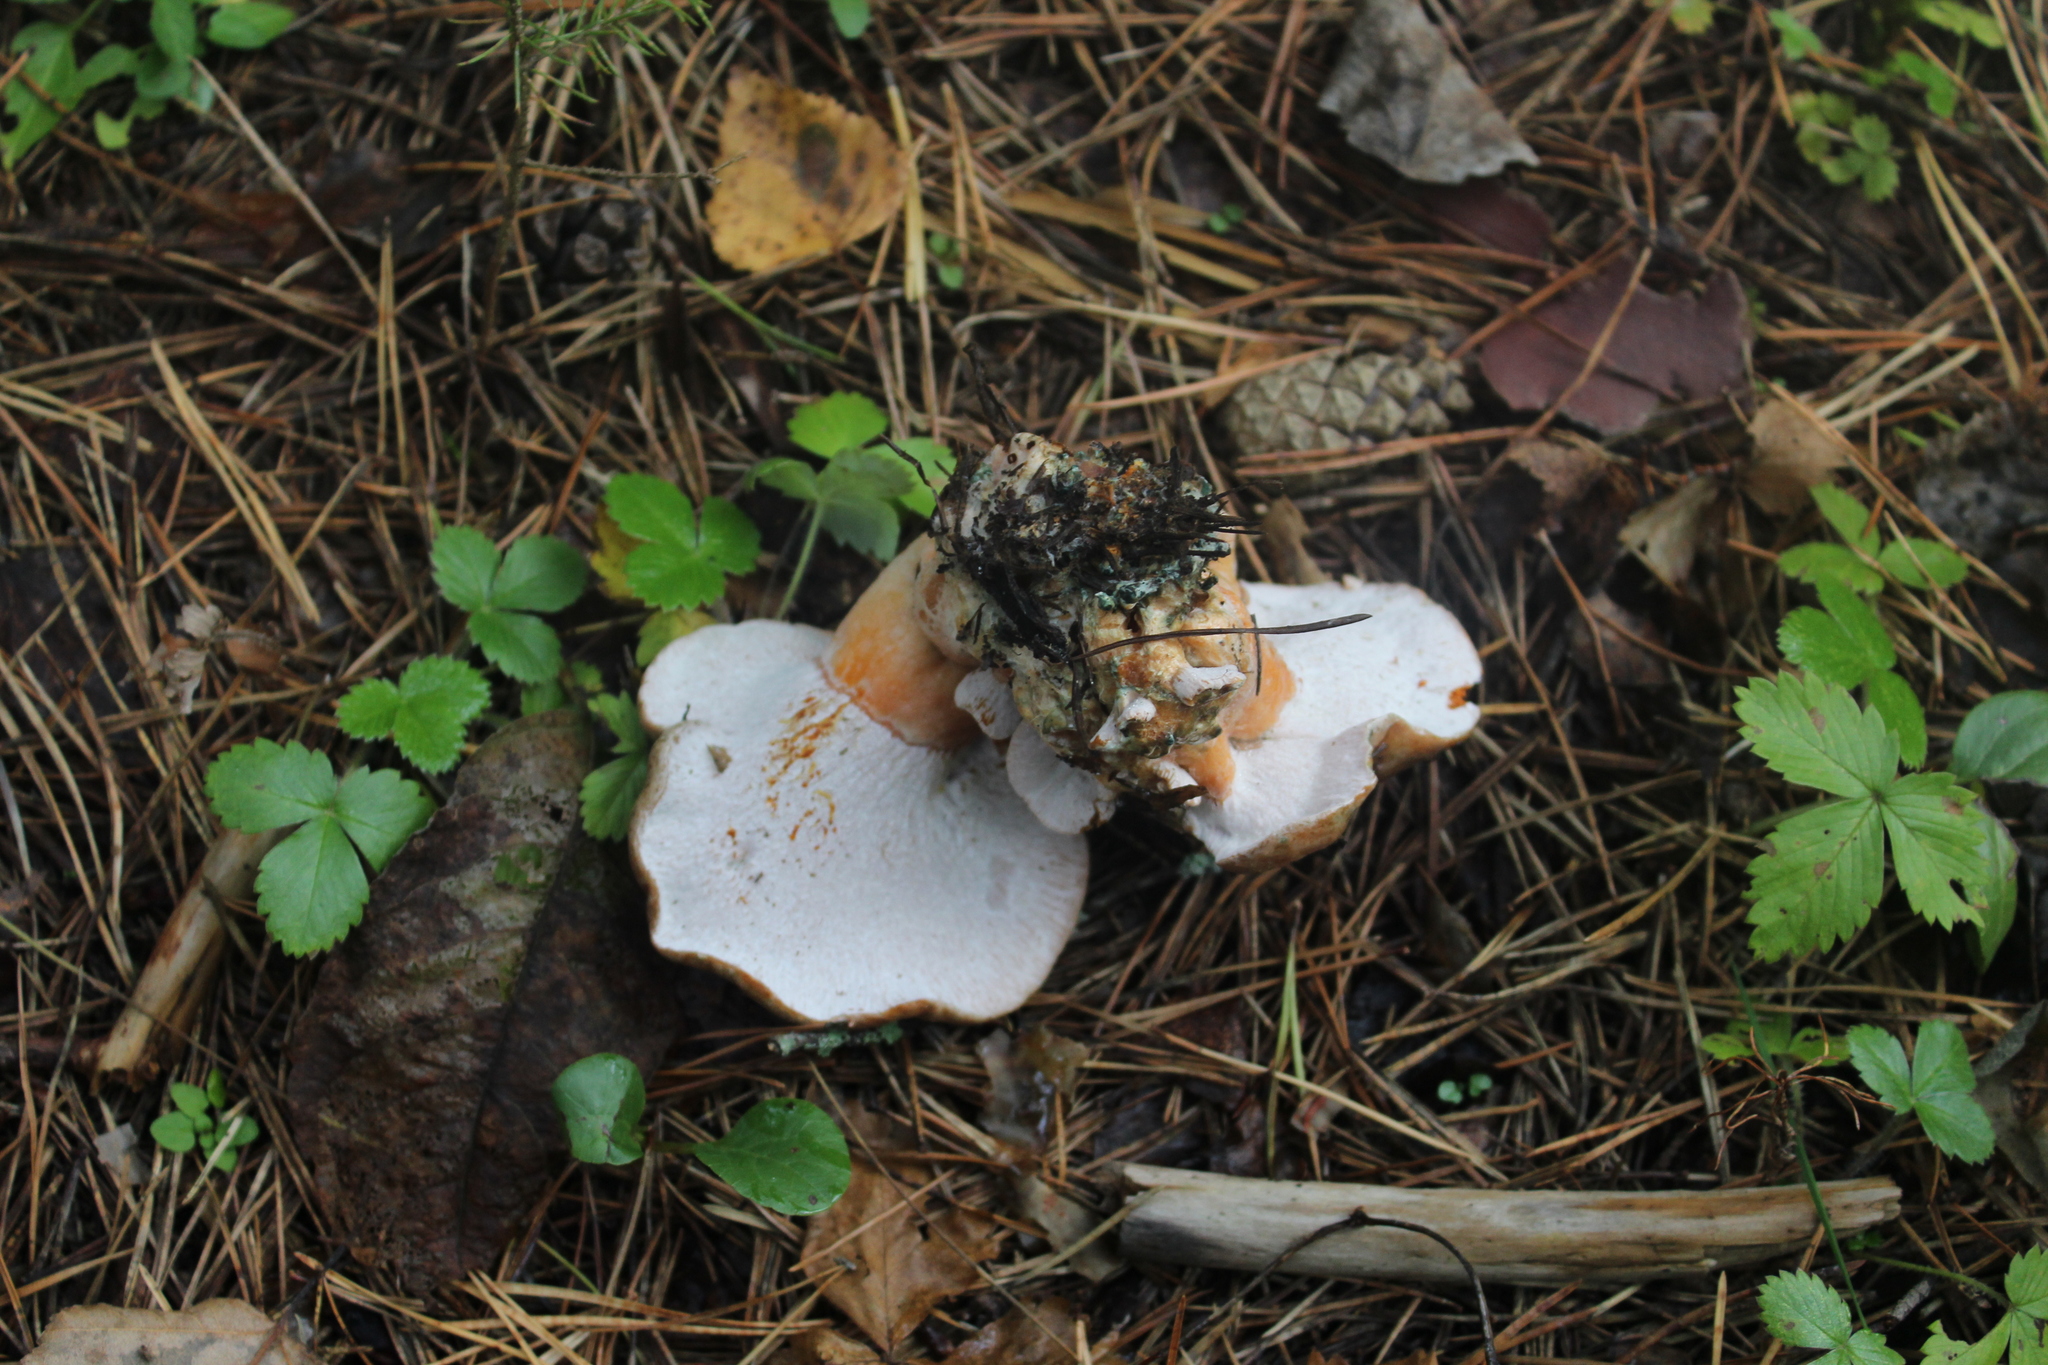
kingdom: Fungi
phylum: Ascomycota
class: Sordariomycetes
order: Hypocreales
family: Hypocreaceae
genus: Hypomyces
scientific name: Hypomyces lateritius
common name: Ochre gillgobbler
